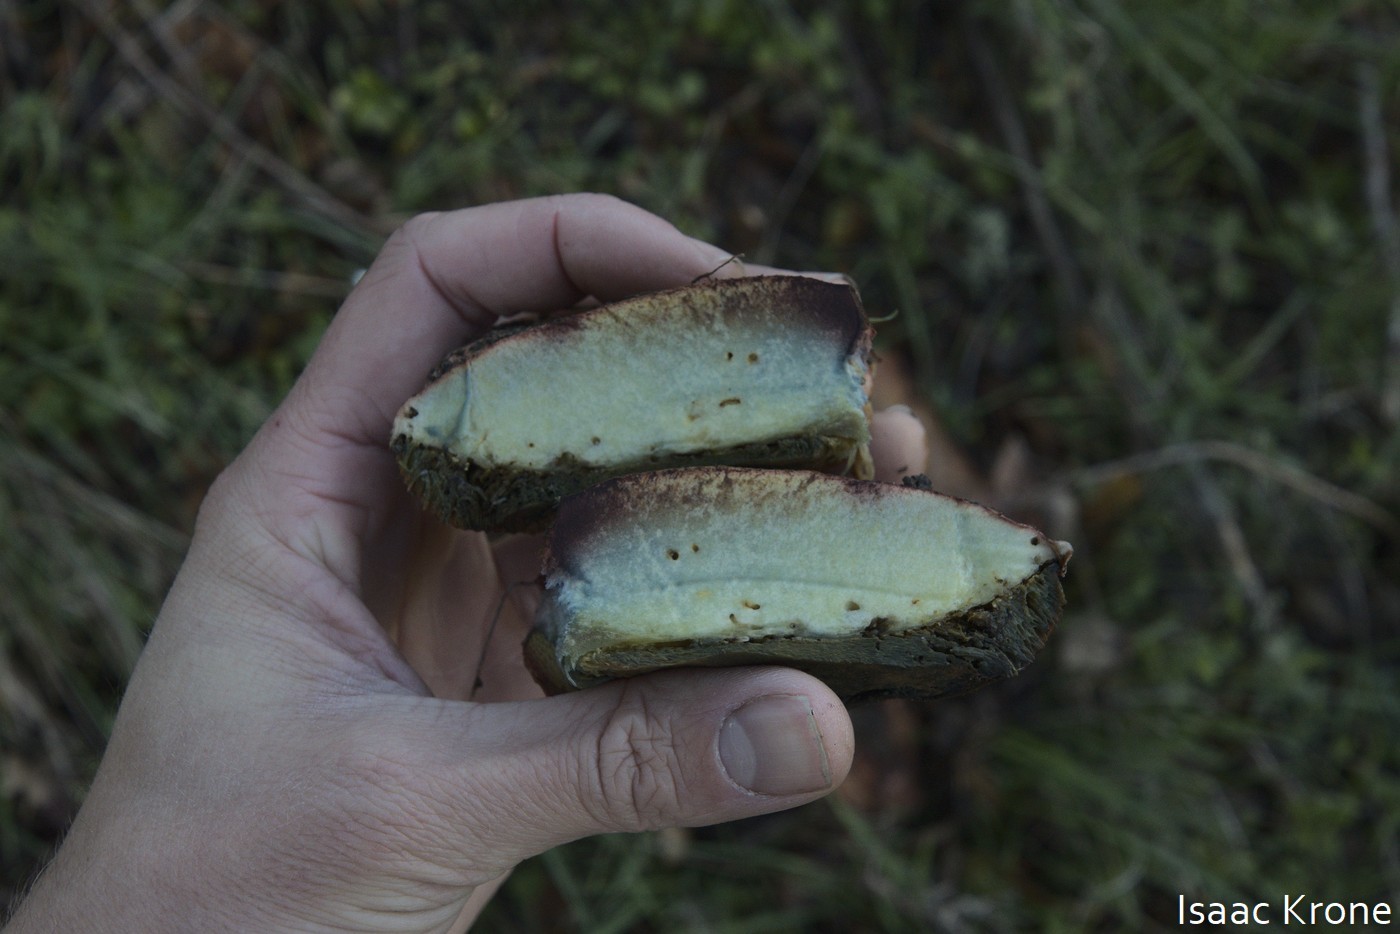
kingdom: Fungi
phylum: Basidiomycota
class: Agaricomycetes
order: Boletales
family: Boletaceae
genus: Suillellus
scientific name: Suillellus amygdalinus
